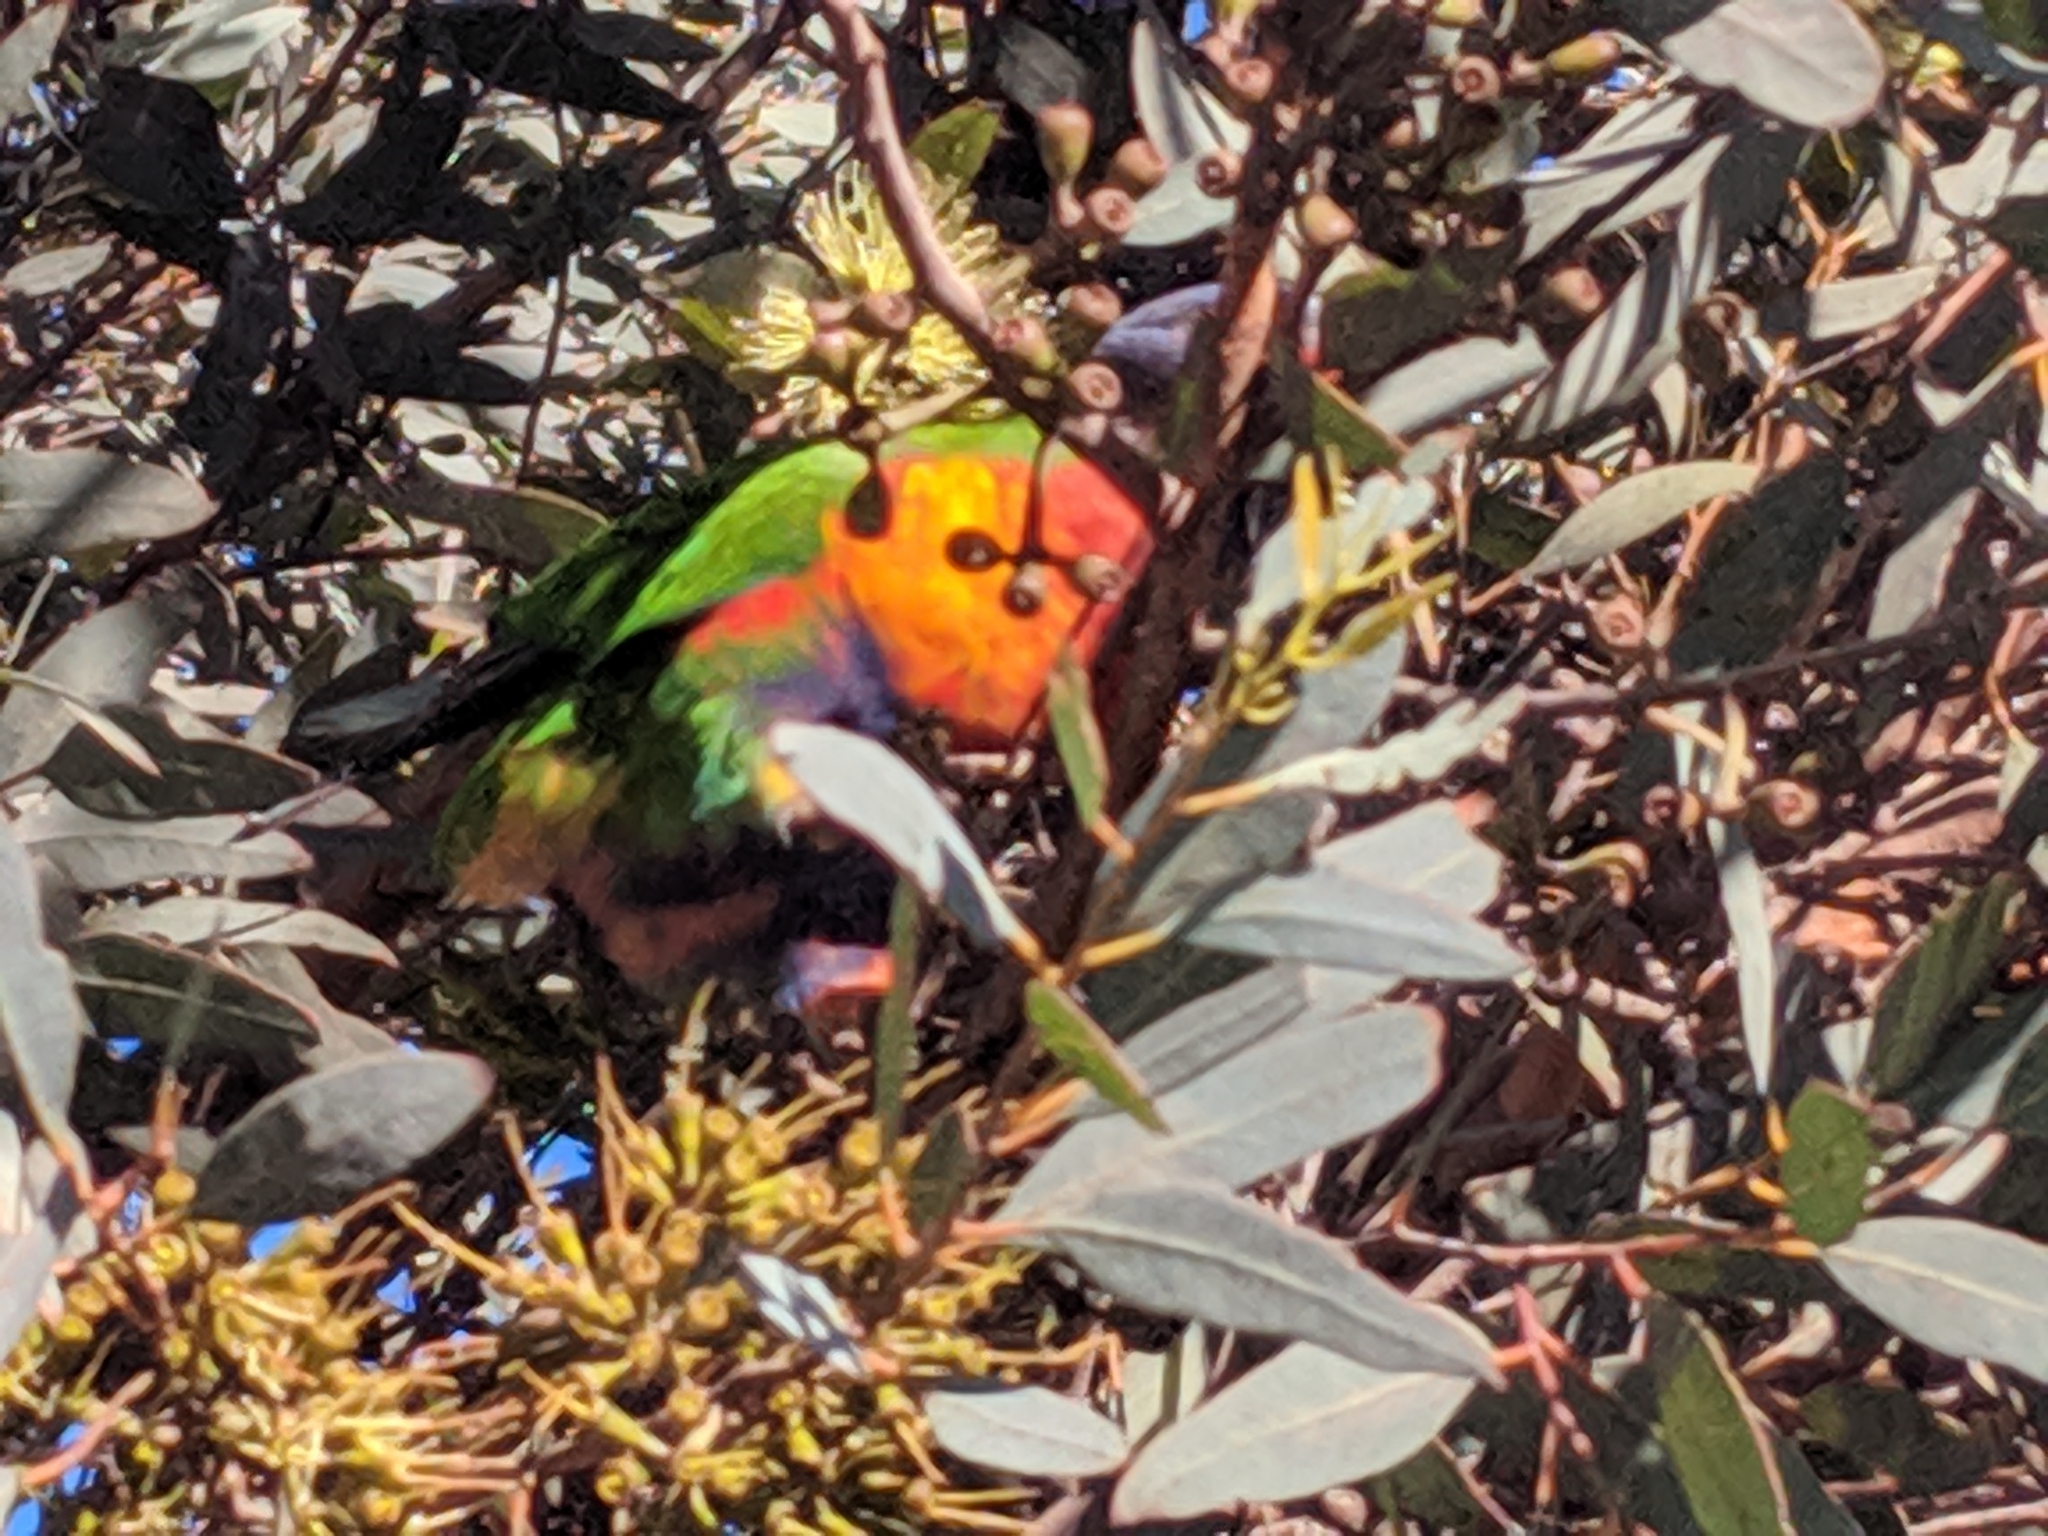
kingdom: Animalia
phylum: Chordata
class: Aves
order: Psittaciformes
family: Psittacidae
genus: Trichoglossus
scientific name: Trichoglossus haematodus
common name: Coconut lorikeet
